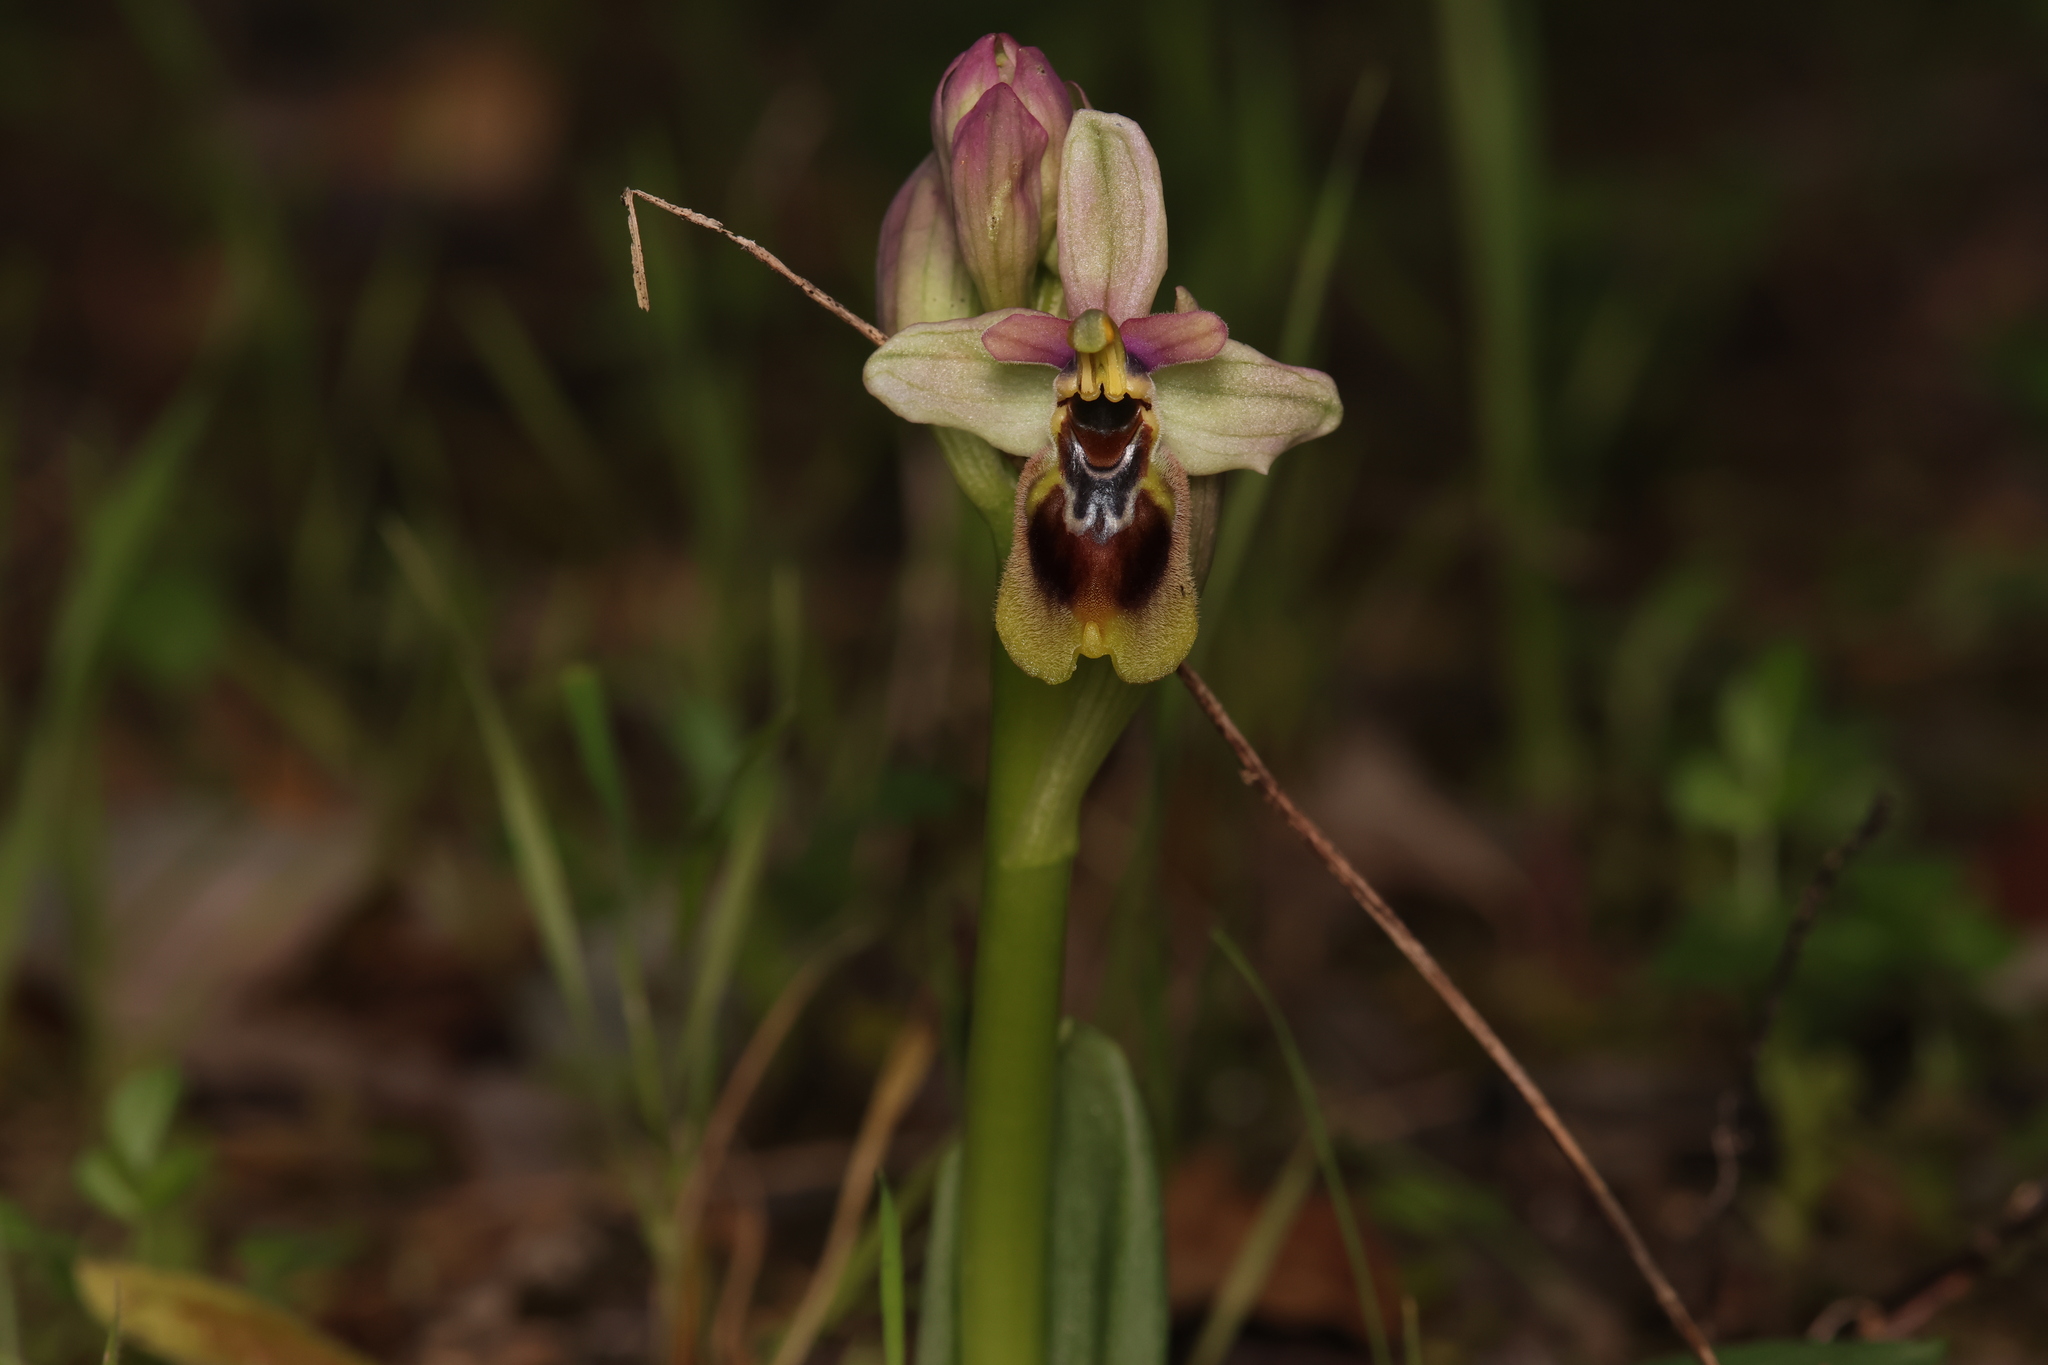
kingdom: Plantae
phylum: Tracheophyta
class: Liliopsida
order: Asparagales
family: Orchidaceae
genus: Ophrys
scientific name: Ophrys tenthredinifera
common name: Sawfly orchid
